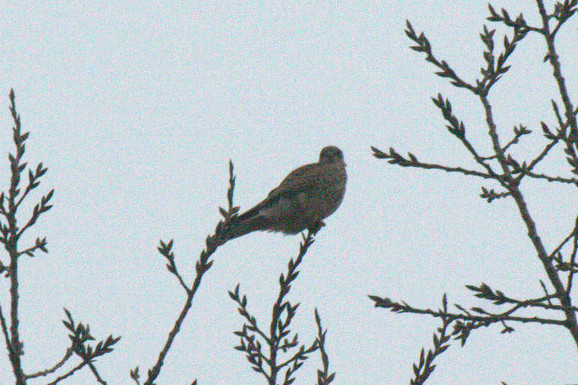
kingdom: Animalia
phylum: Chordata
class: Aves
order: Falconiformes
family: Falconidae
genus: Falco
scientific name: Falco tinnunculus
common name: Common kestrel
